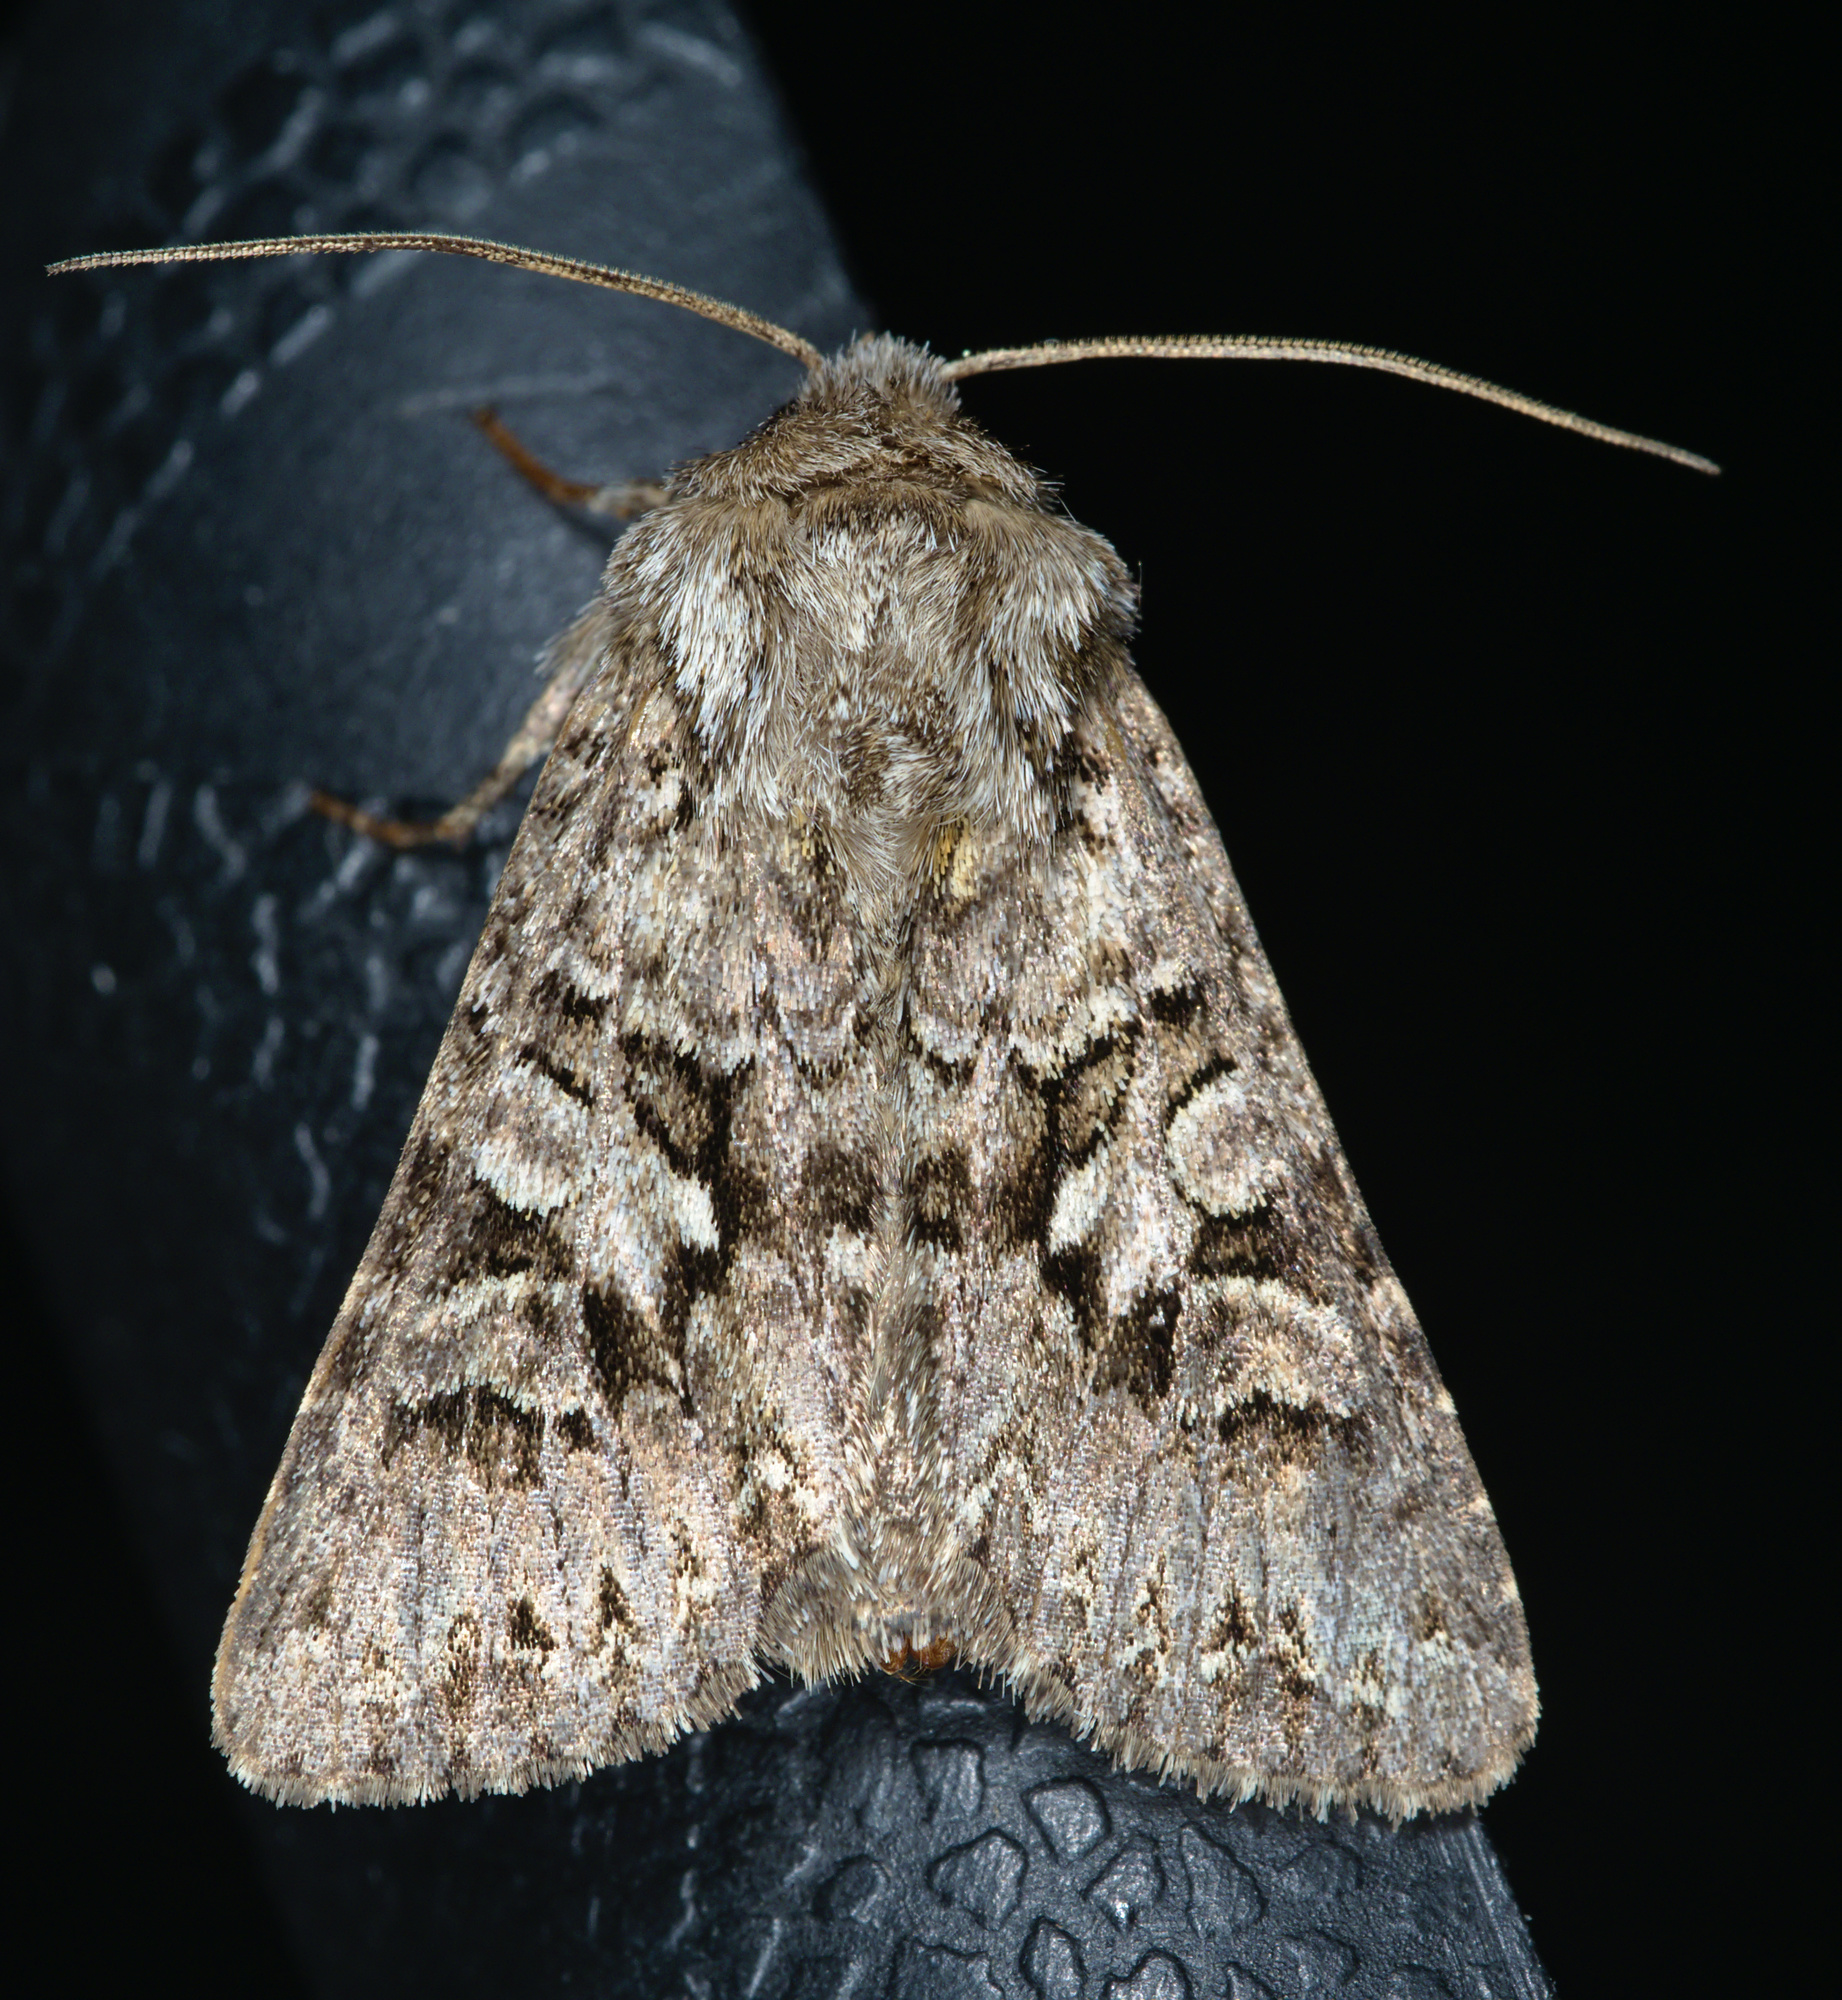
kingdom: Animalia
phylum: Arthropoda
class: Insecta
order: Lepidoptera
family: Noctuidae
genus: Hada
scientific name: Hada plebeja
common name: Shears
